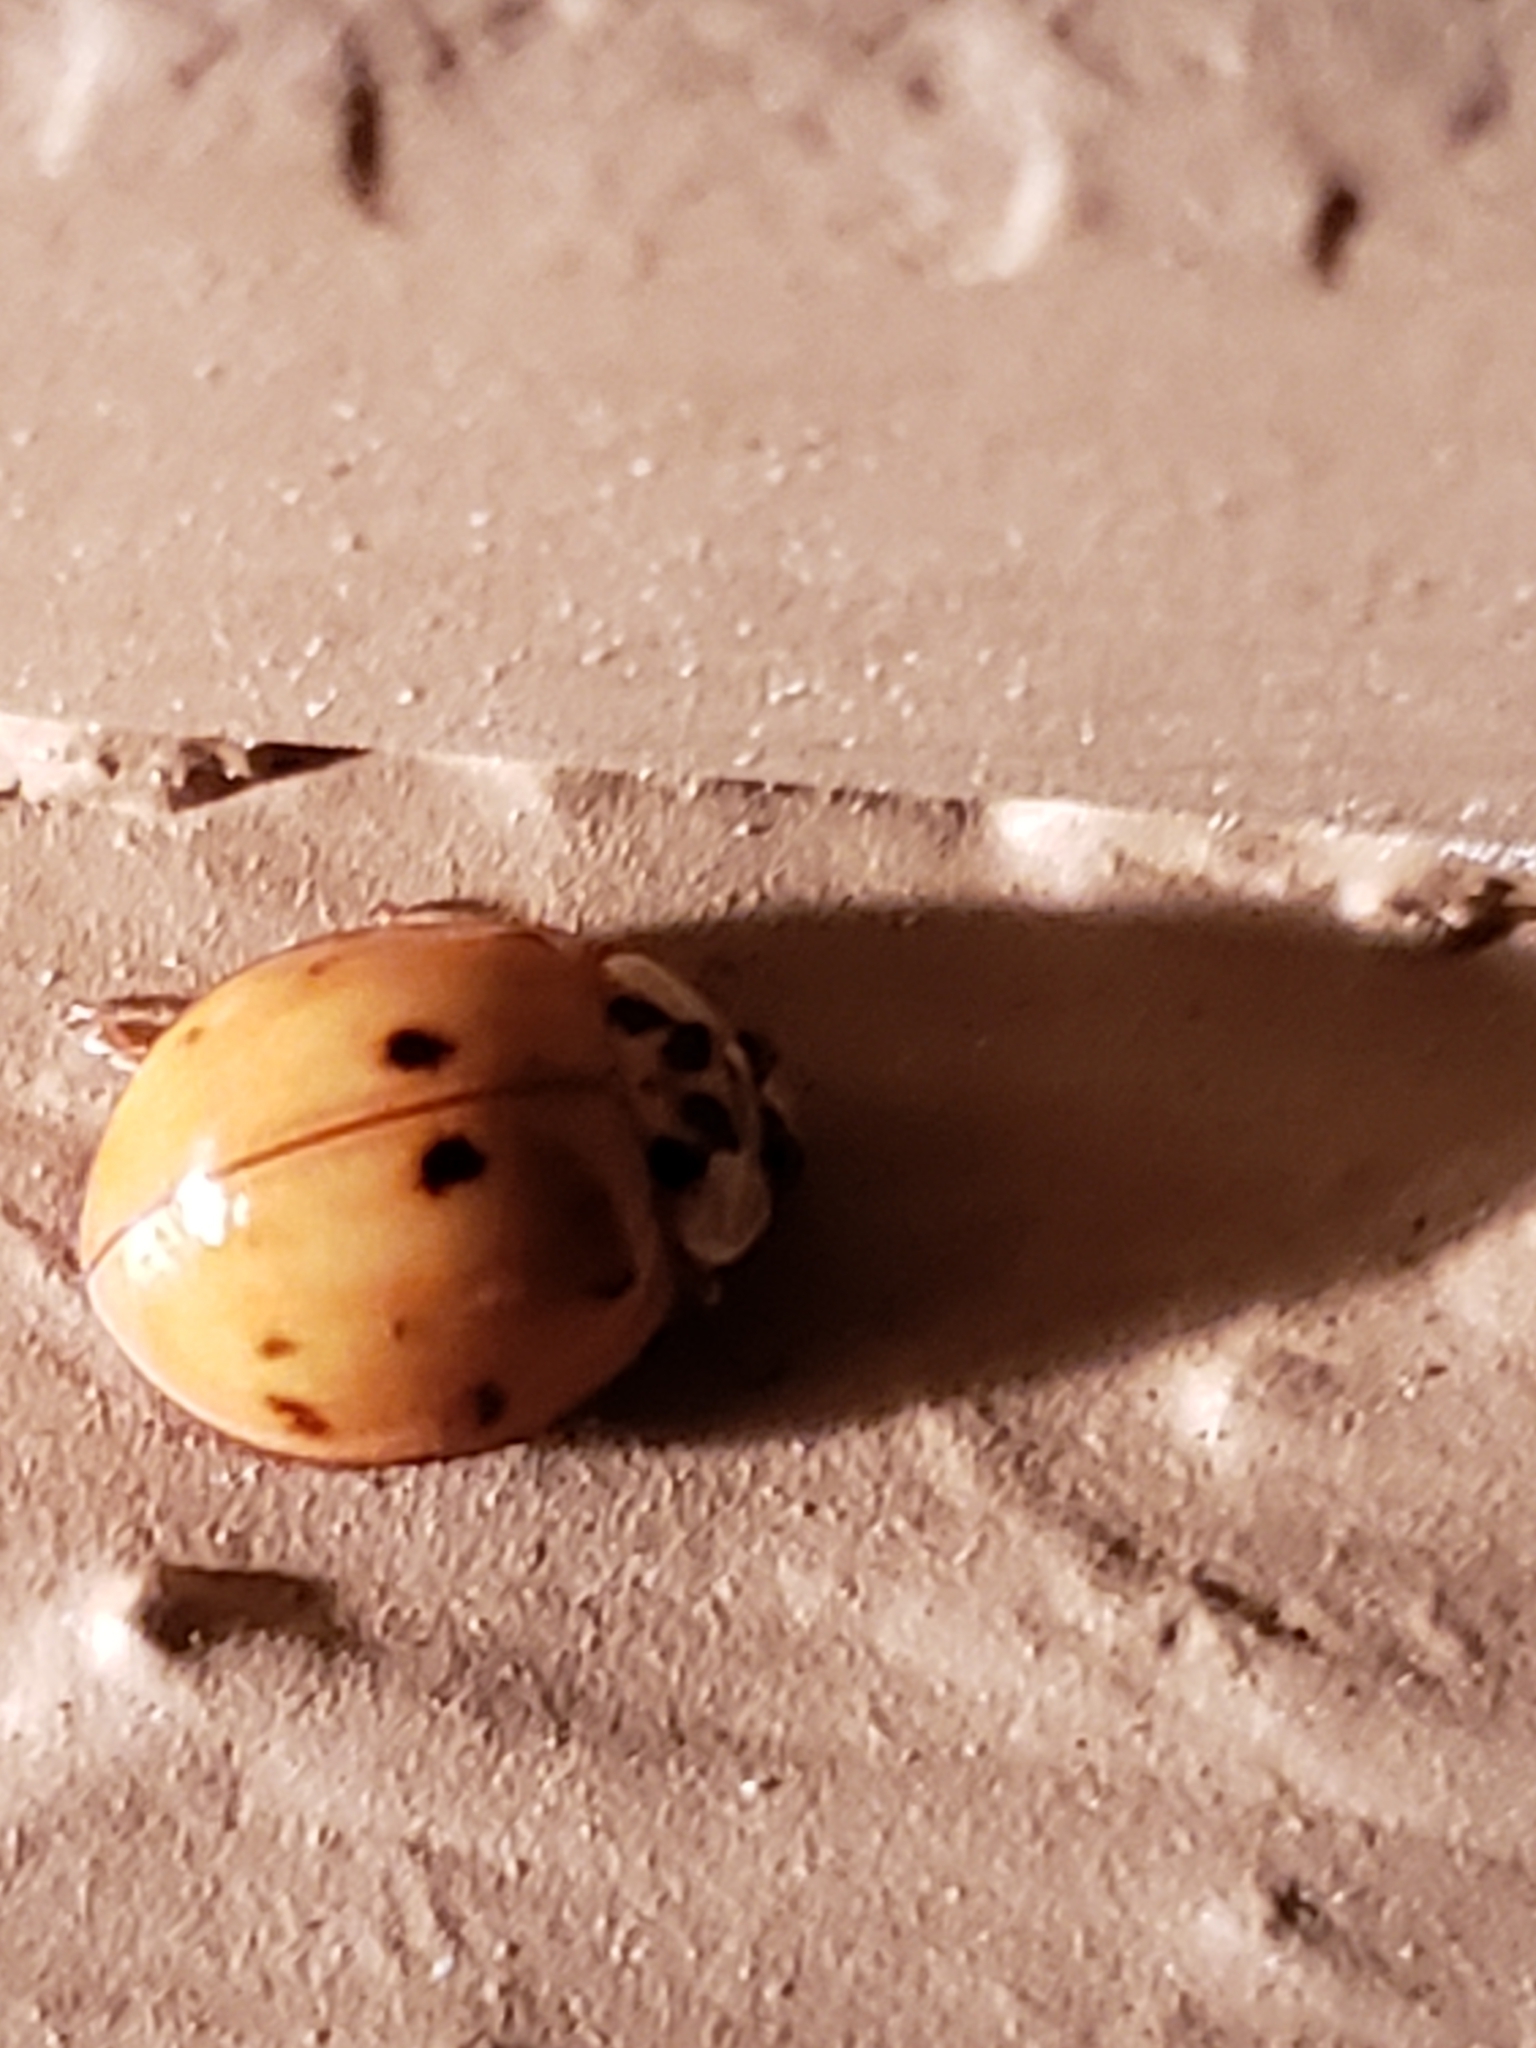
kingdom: Animalia
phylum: Arthropoda
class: Insecta
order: Coleoptera
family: Coccinellidae
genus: Harmonia
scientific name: Harmonia axyridis
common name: Harlequin ladybird
